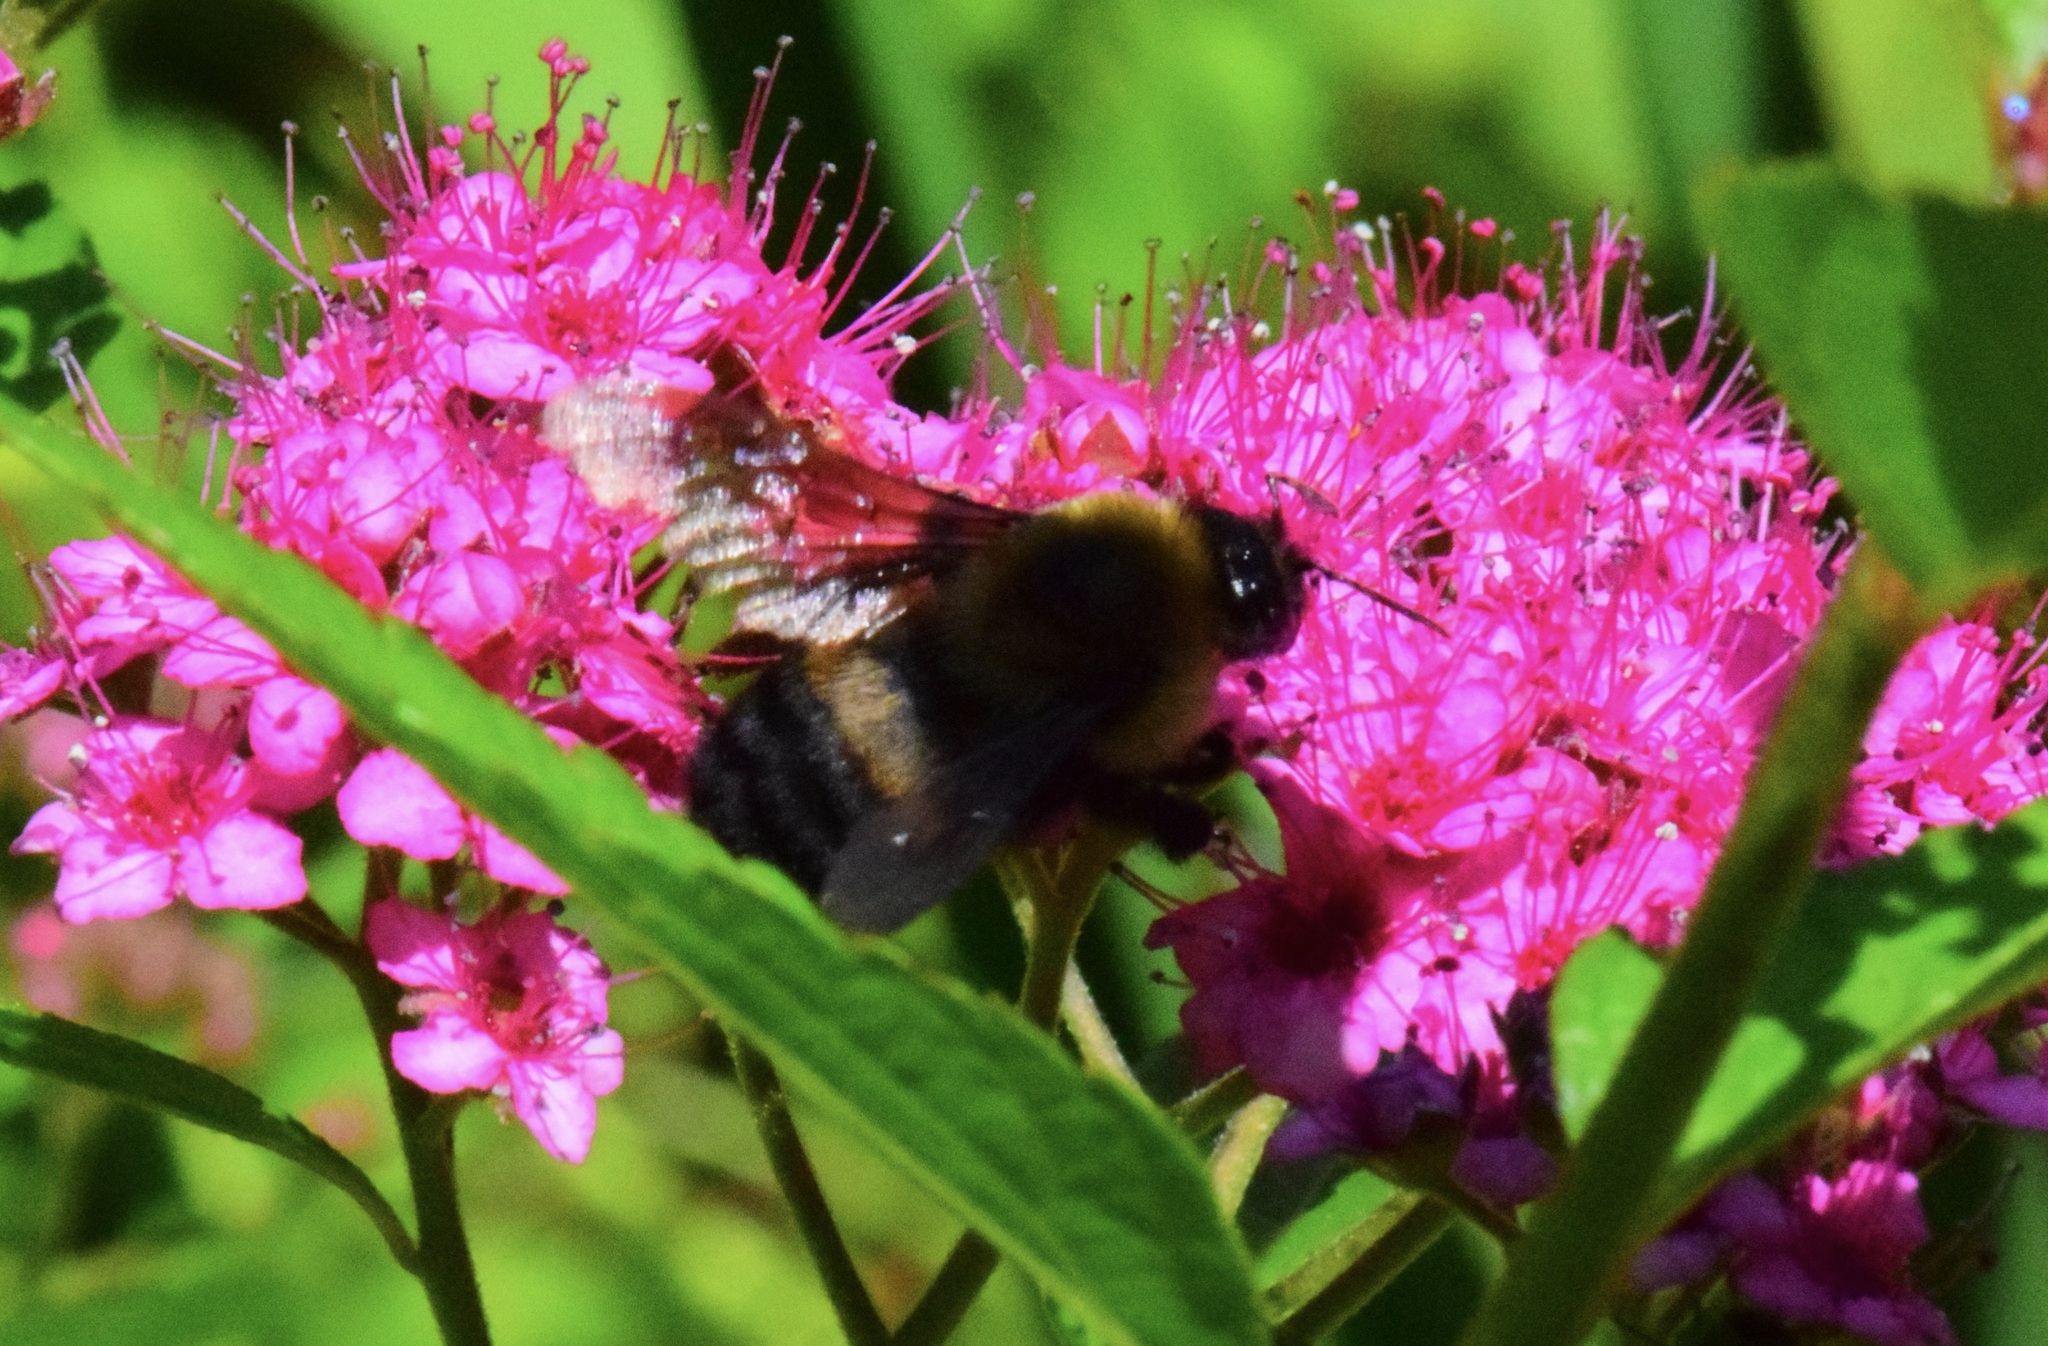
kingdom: Animalia
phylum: Arthropoda
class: Insecta
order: Hymenoptera
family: Apidae
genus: Bombus
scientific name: Bombus griseocollis
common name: Brown-belted bumble bee
